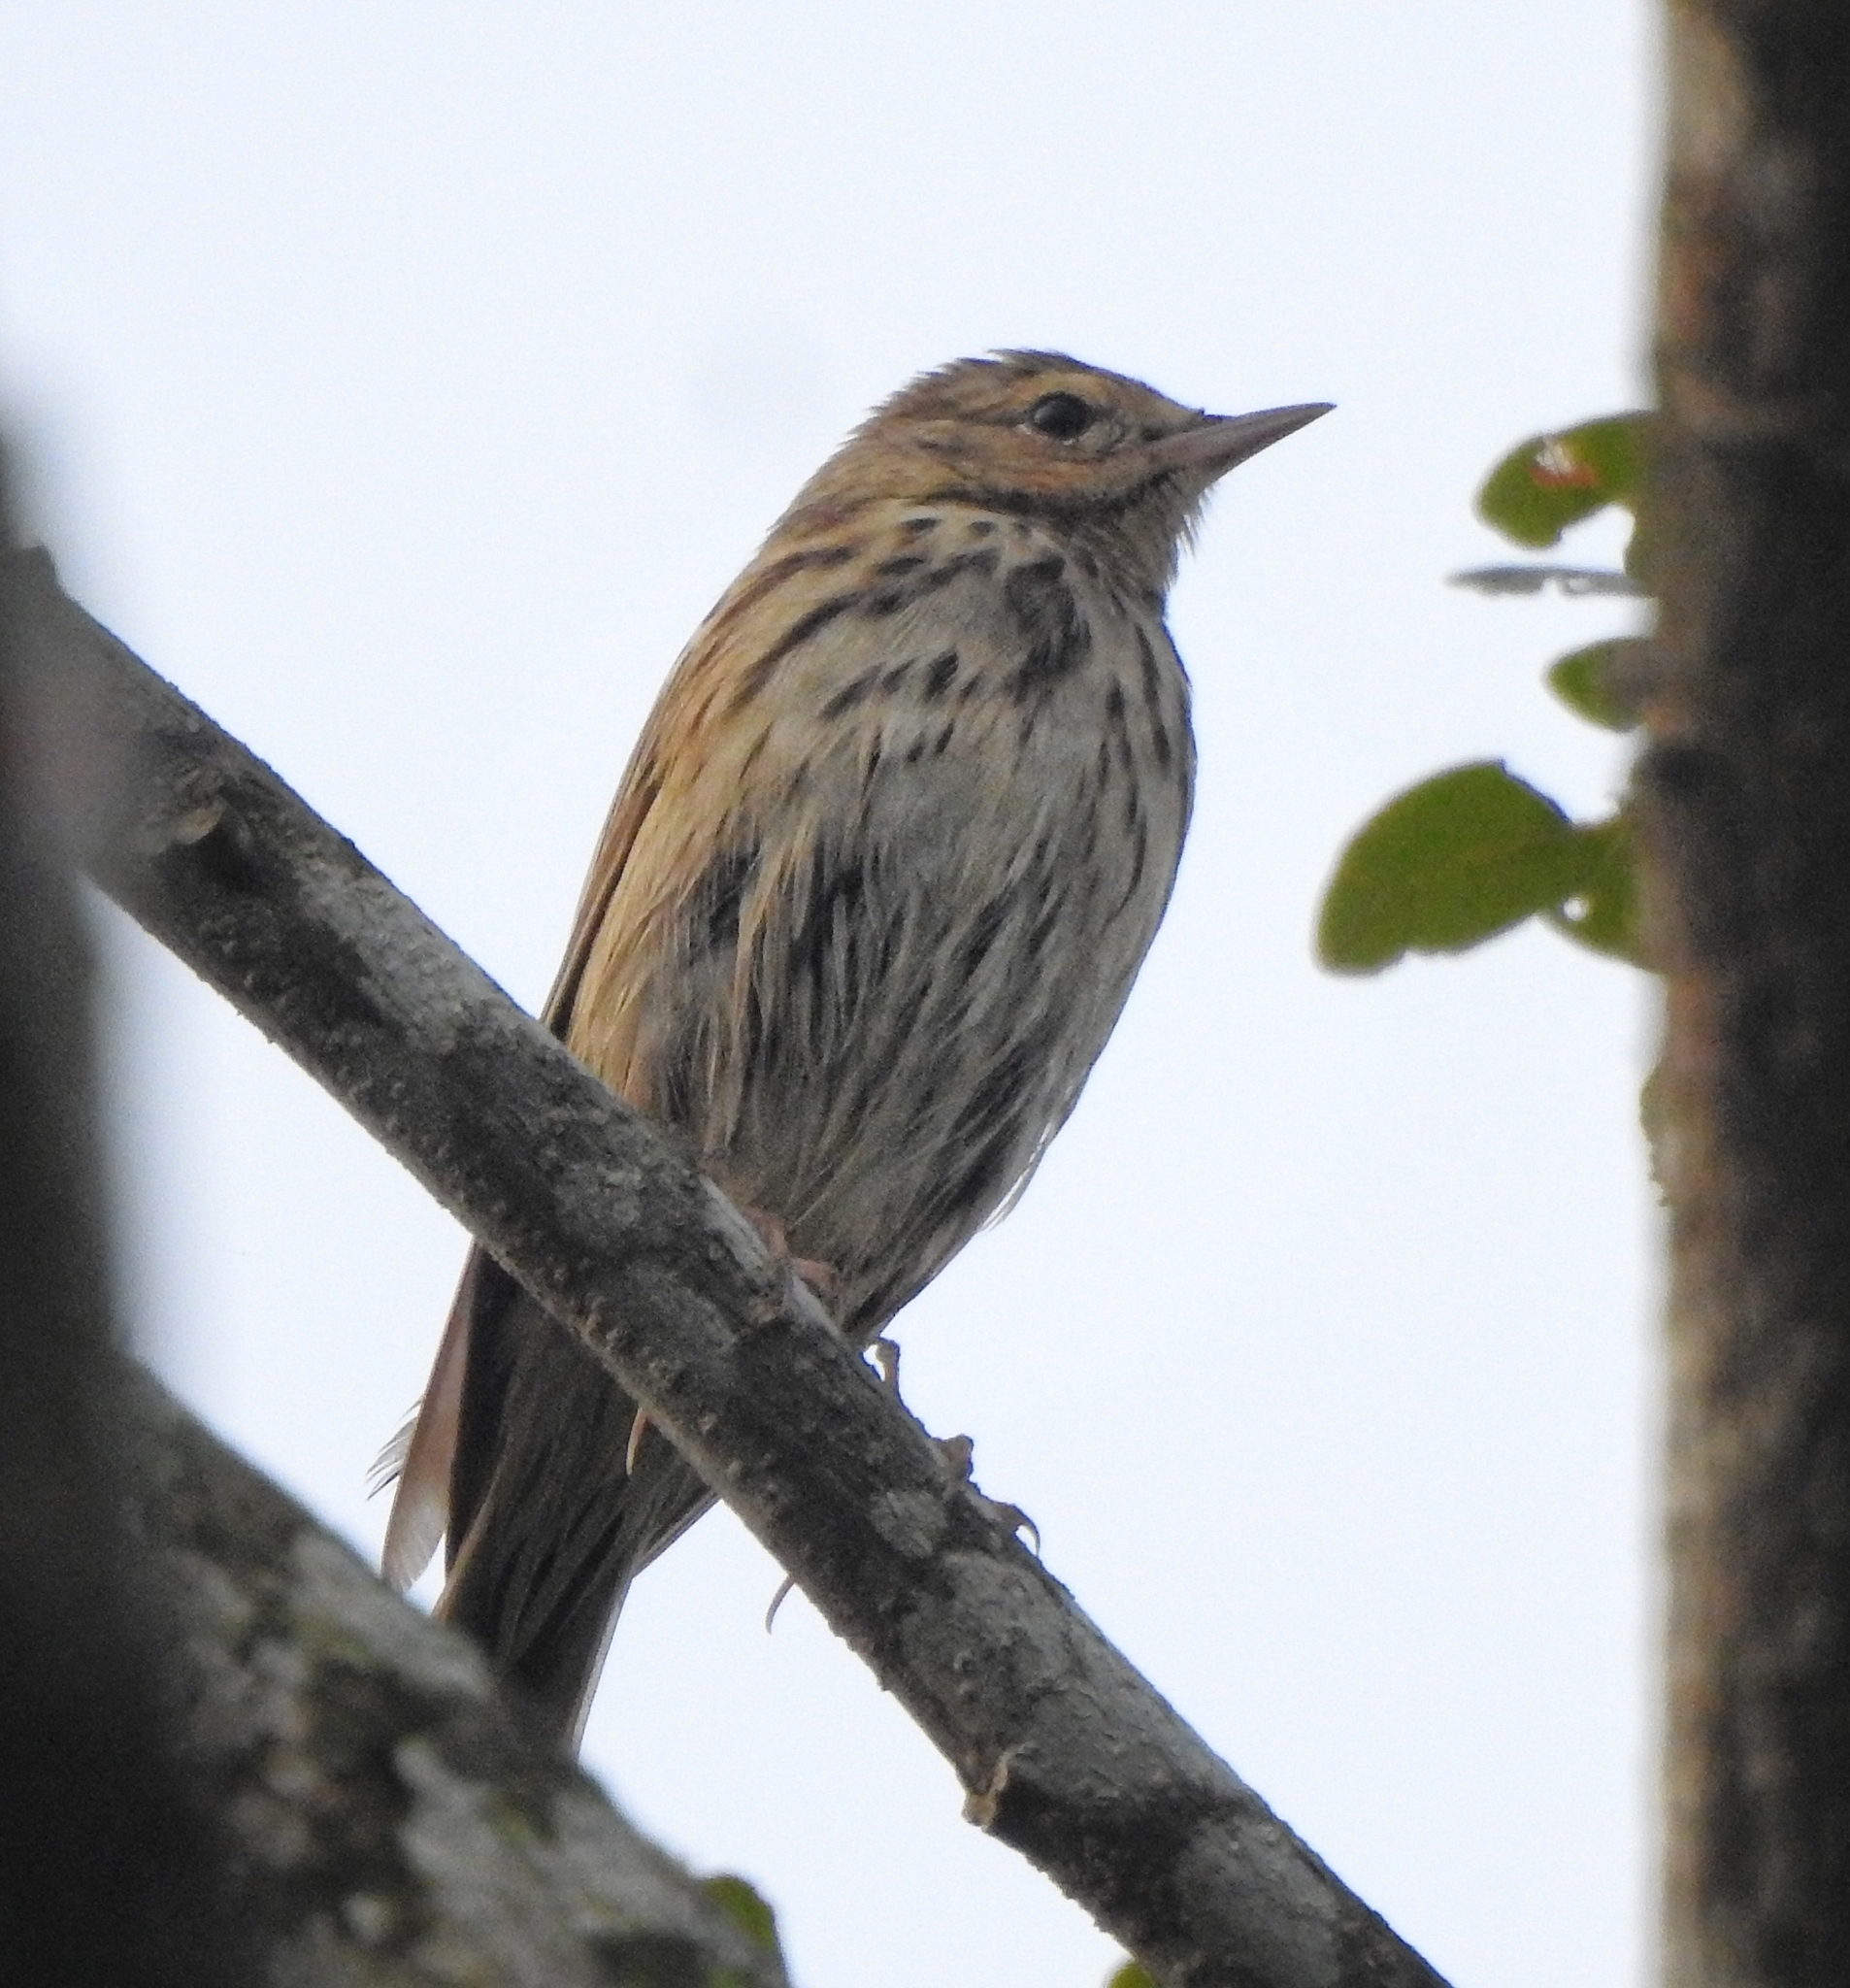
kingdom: Animalia
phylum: Chordata
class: Aves
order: Passeriformes
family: Motacillidae
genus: Anthus
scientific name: Anthus trivialis
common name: Tree pipit
